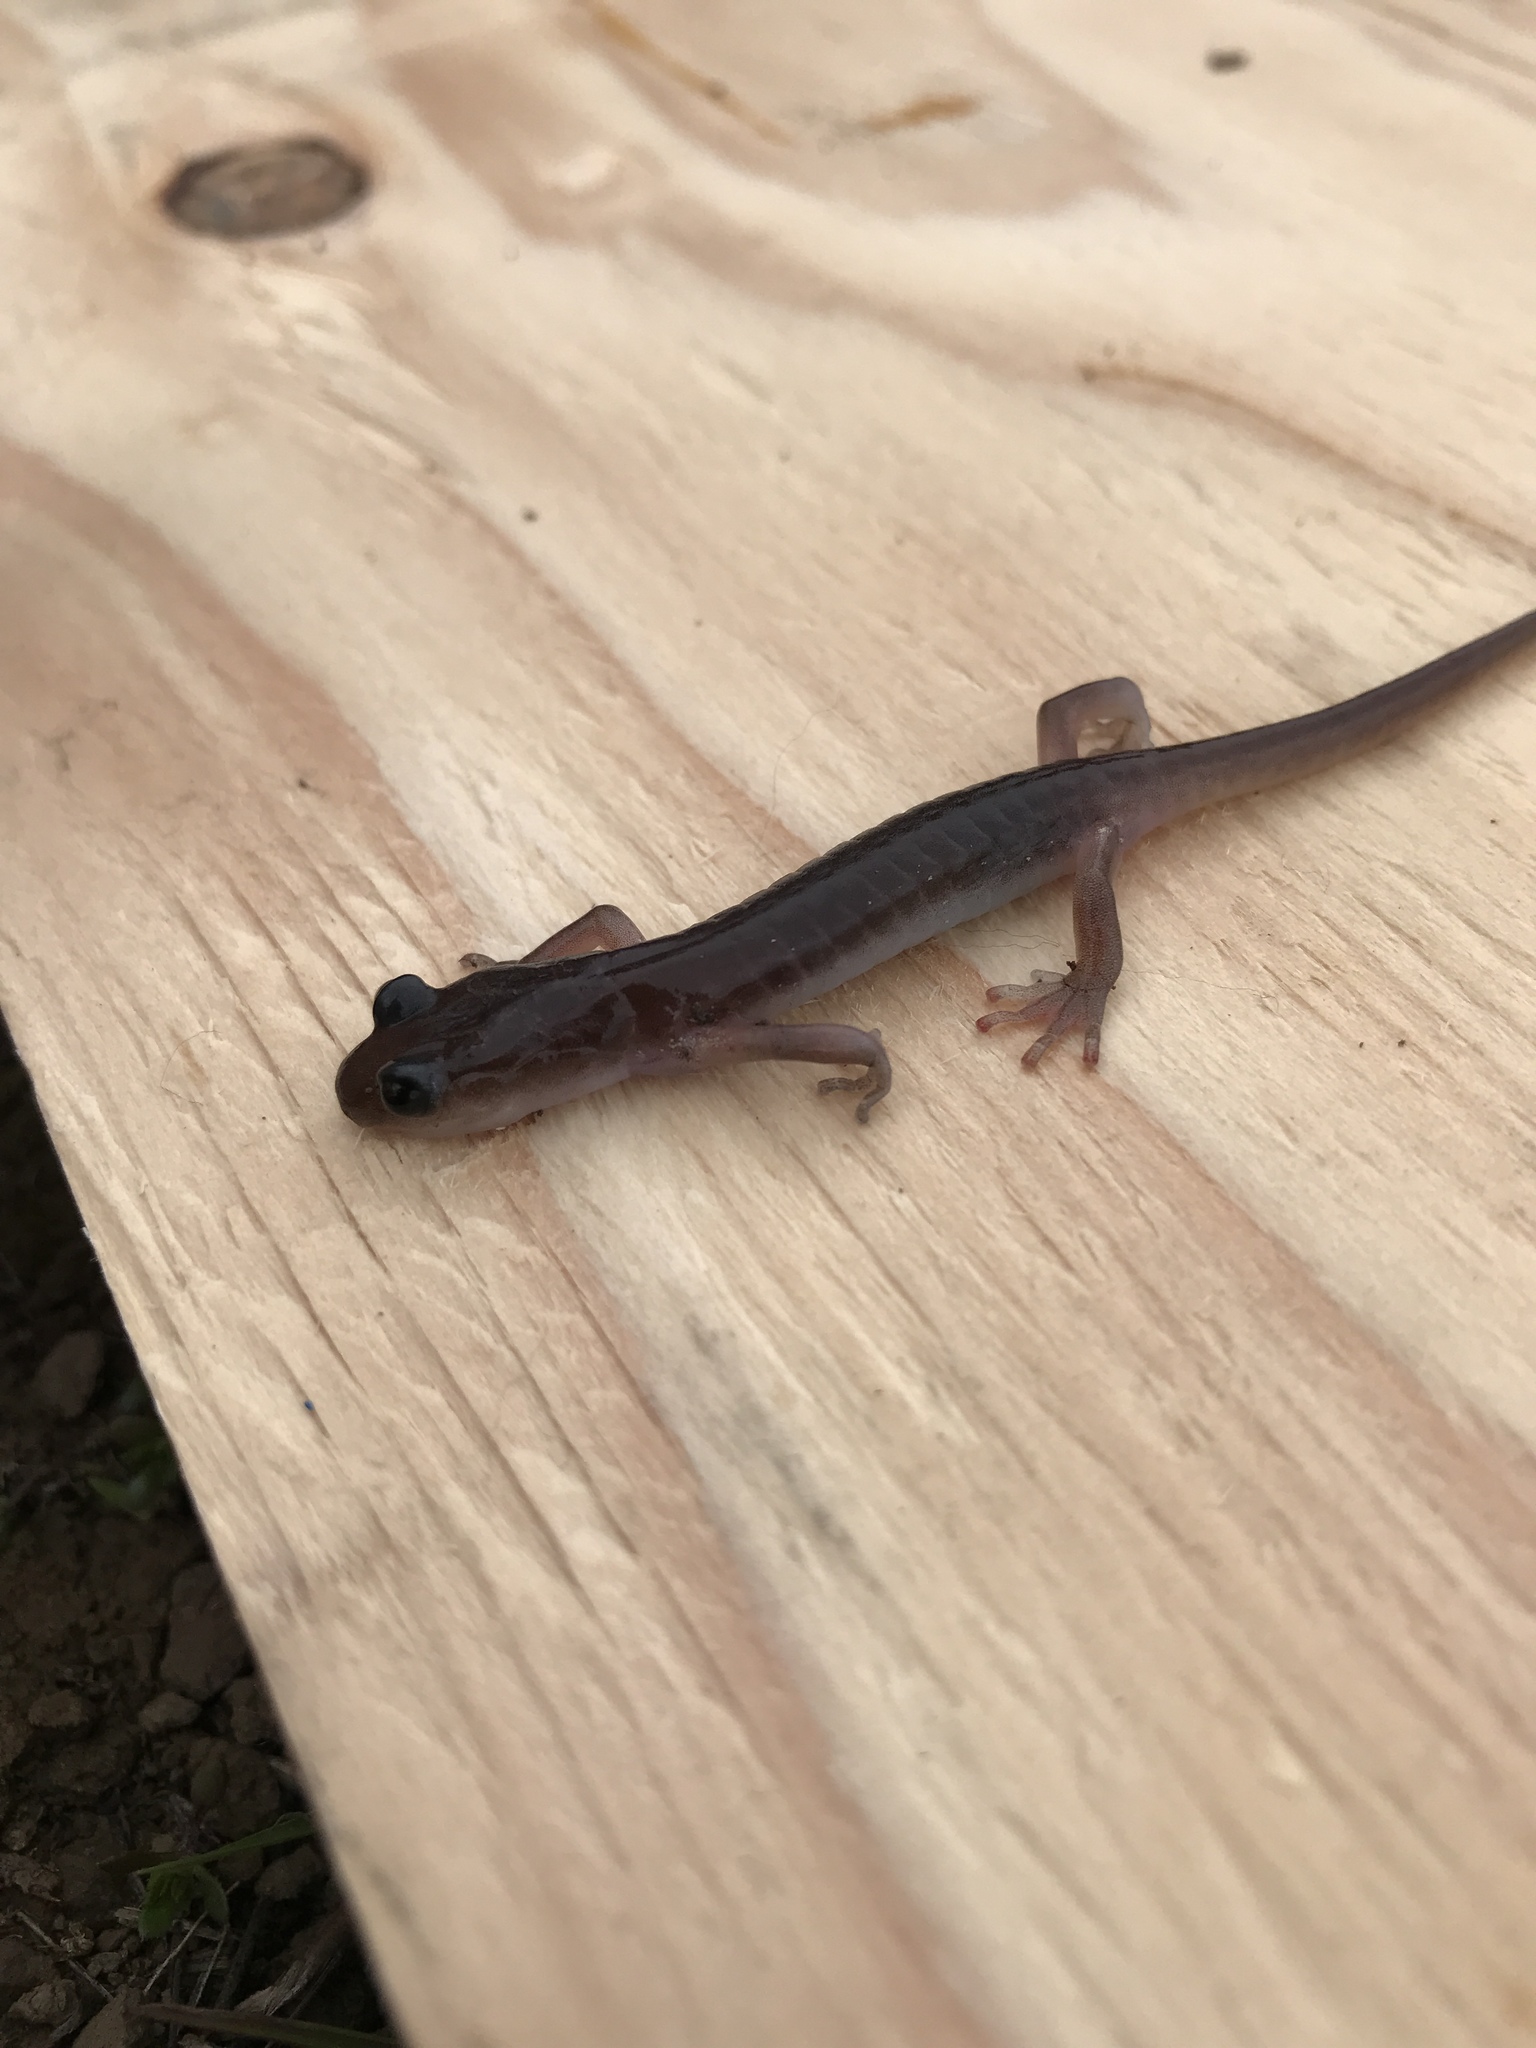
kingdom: Animalia
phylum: Chordata
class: Amphibia
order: Caudata
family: Plethodontidae
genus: Aneides
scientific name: Aneides lugubris
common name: Arboreal salamander
